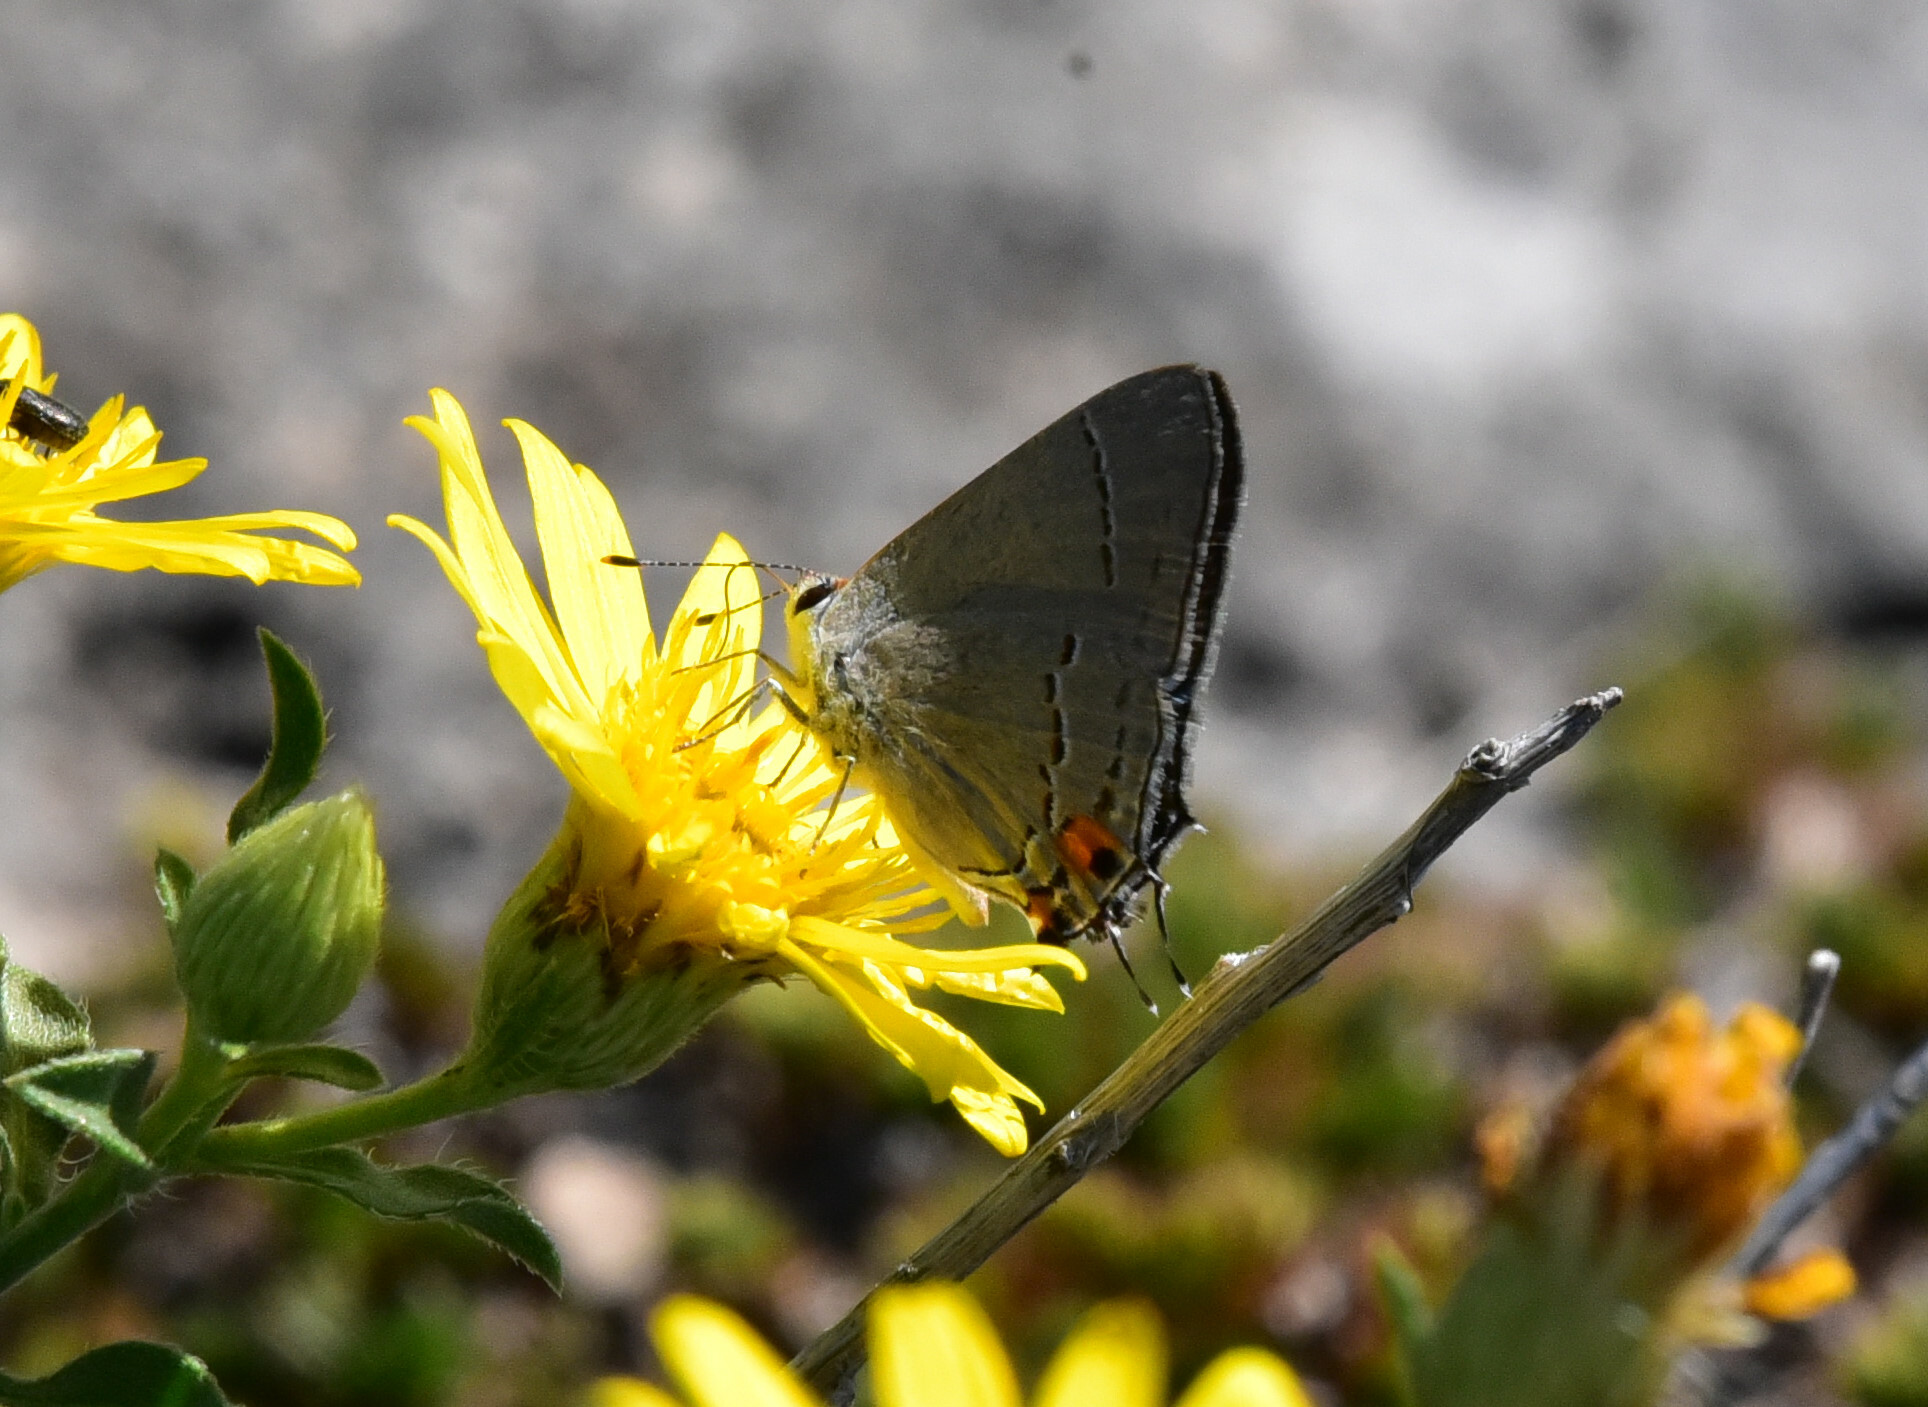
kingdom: Animalia
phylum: Arthropoda
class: Insecta
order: Lepidoptera
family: Lycaenidae
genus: Strymon
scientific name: Strymon melinus
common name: Gray hairstreak
